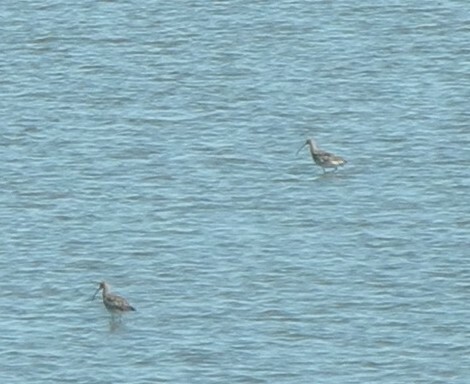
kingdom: Animalia
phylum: Chordata
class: Aves
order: Charadriiformes
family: Scolopacidae
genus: Numenius
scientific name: Numenius arquata
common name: Eurasian curlew
